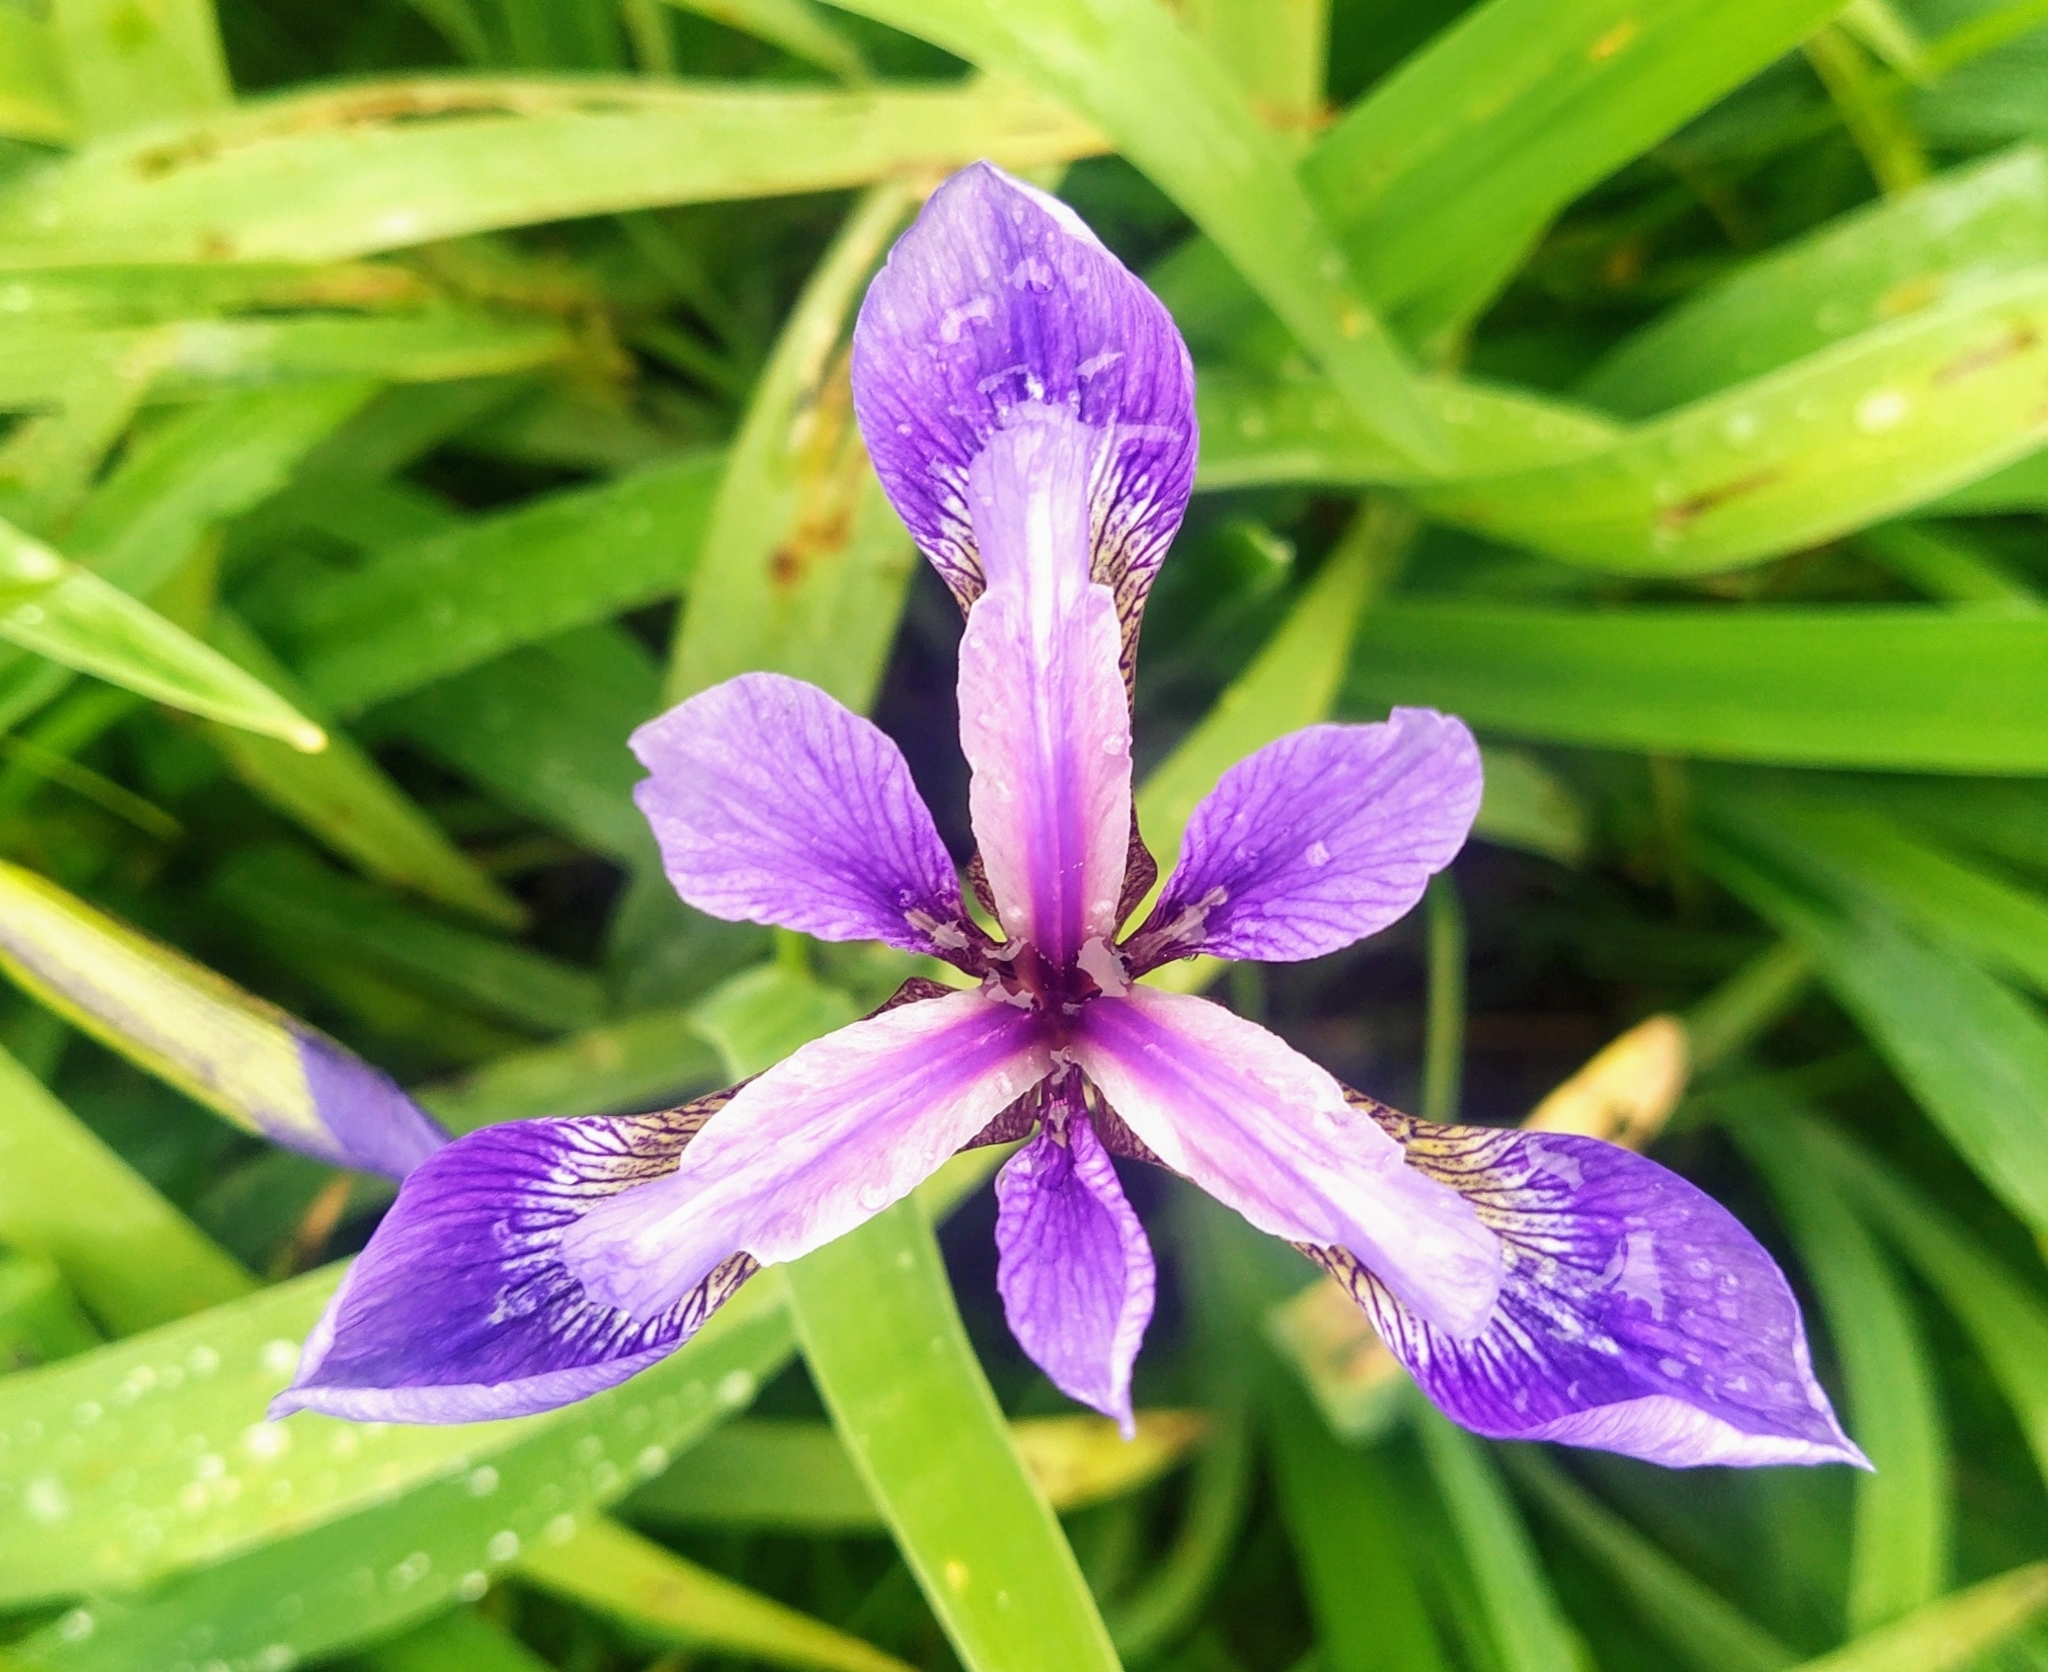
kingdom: Plantae
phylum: Tracheophyta
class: Liliopsida
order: Asparagales
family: Iridaceae
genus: Iris
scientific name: Iris versicolor
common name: Purple iris
